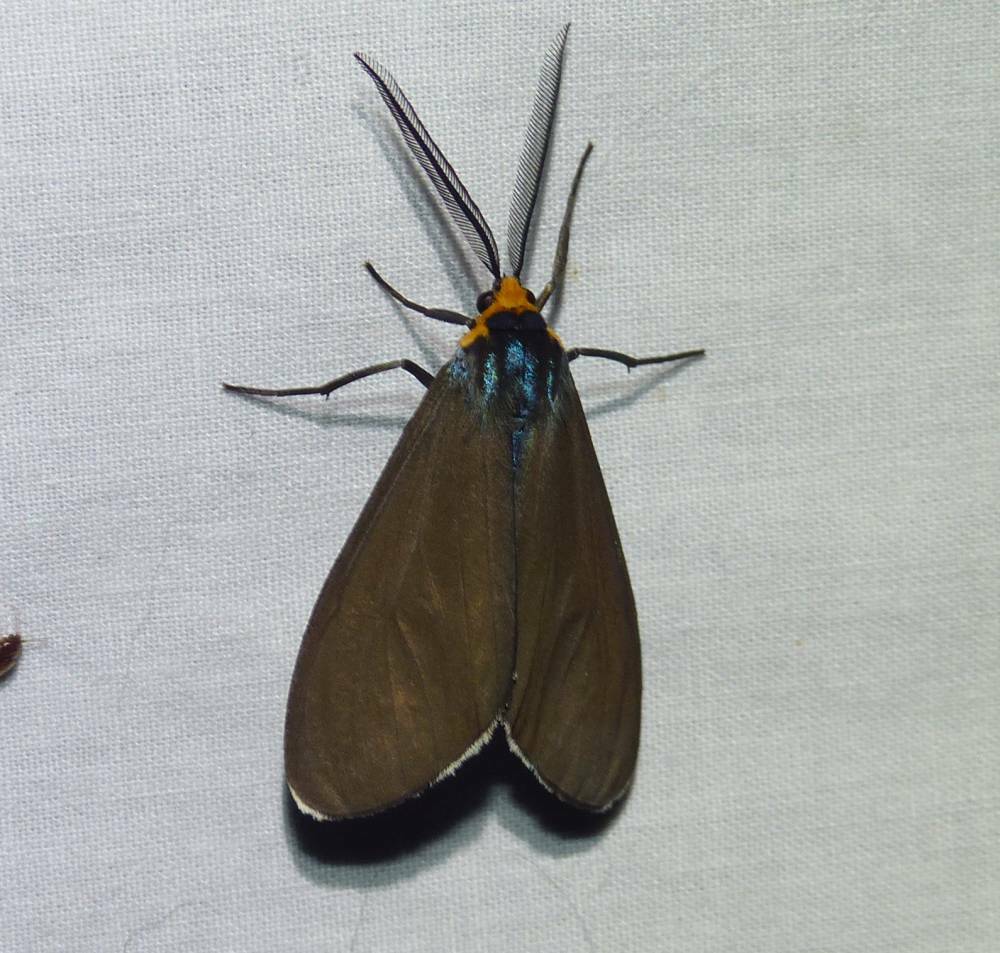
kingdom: Animalia
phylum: Arthropoda
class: Insecta
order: Lepidoptera
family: Erebidae
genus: Ctenucha
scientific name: Ctenucha virginica
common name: Virginia ctenucha moth
